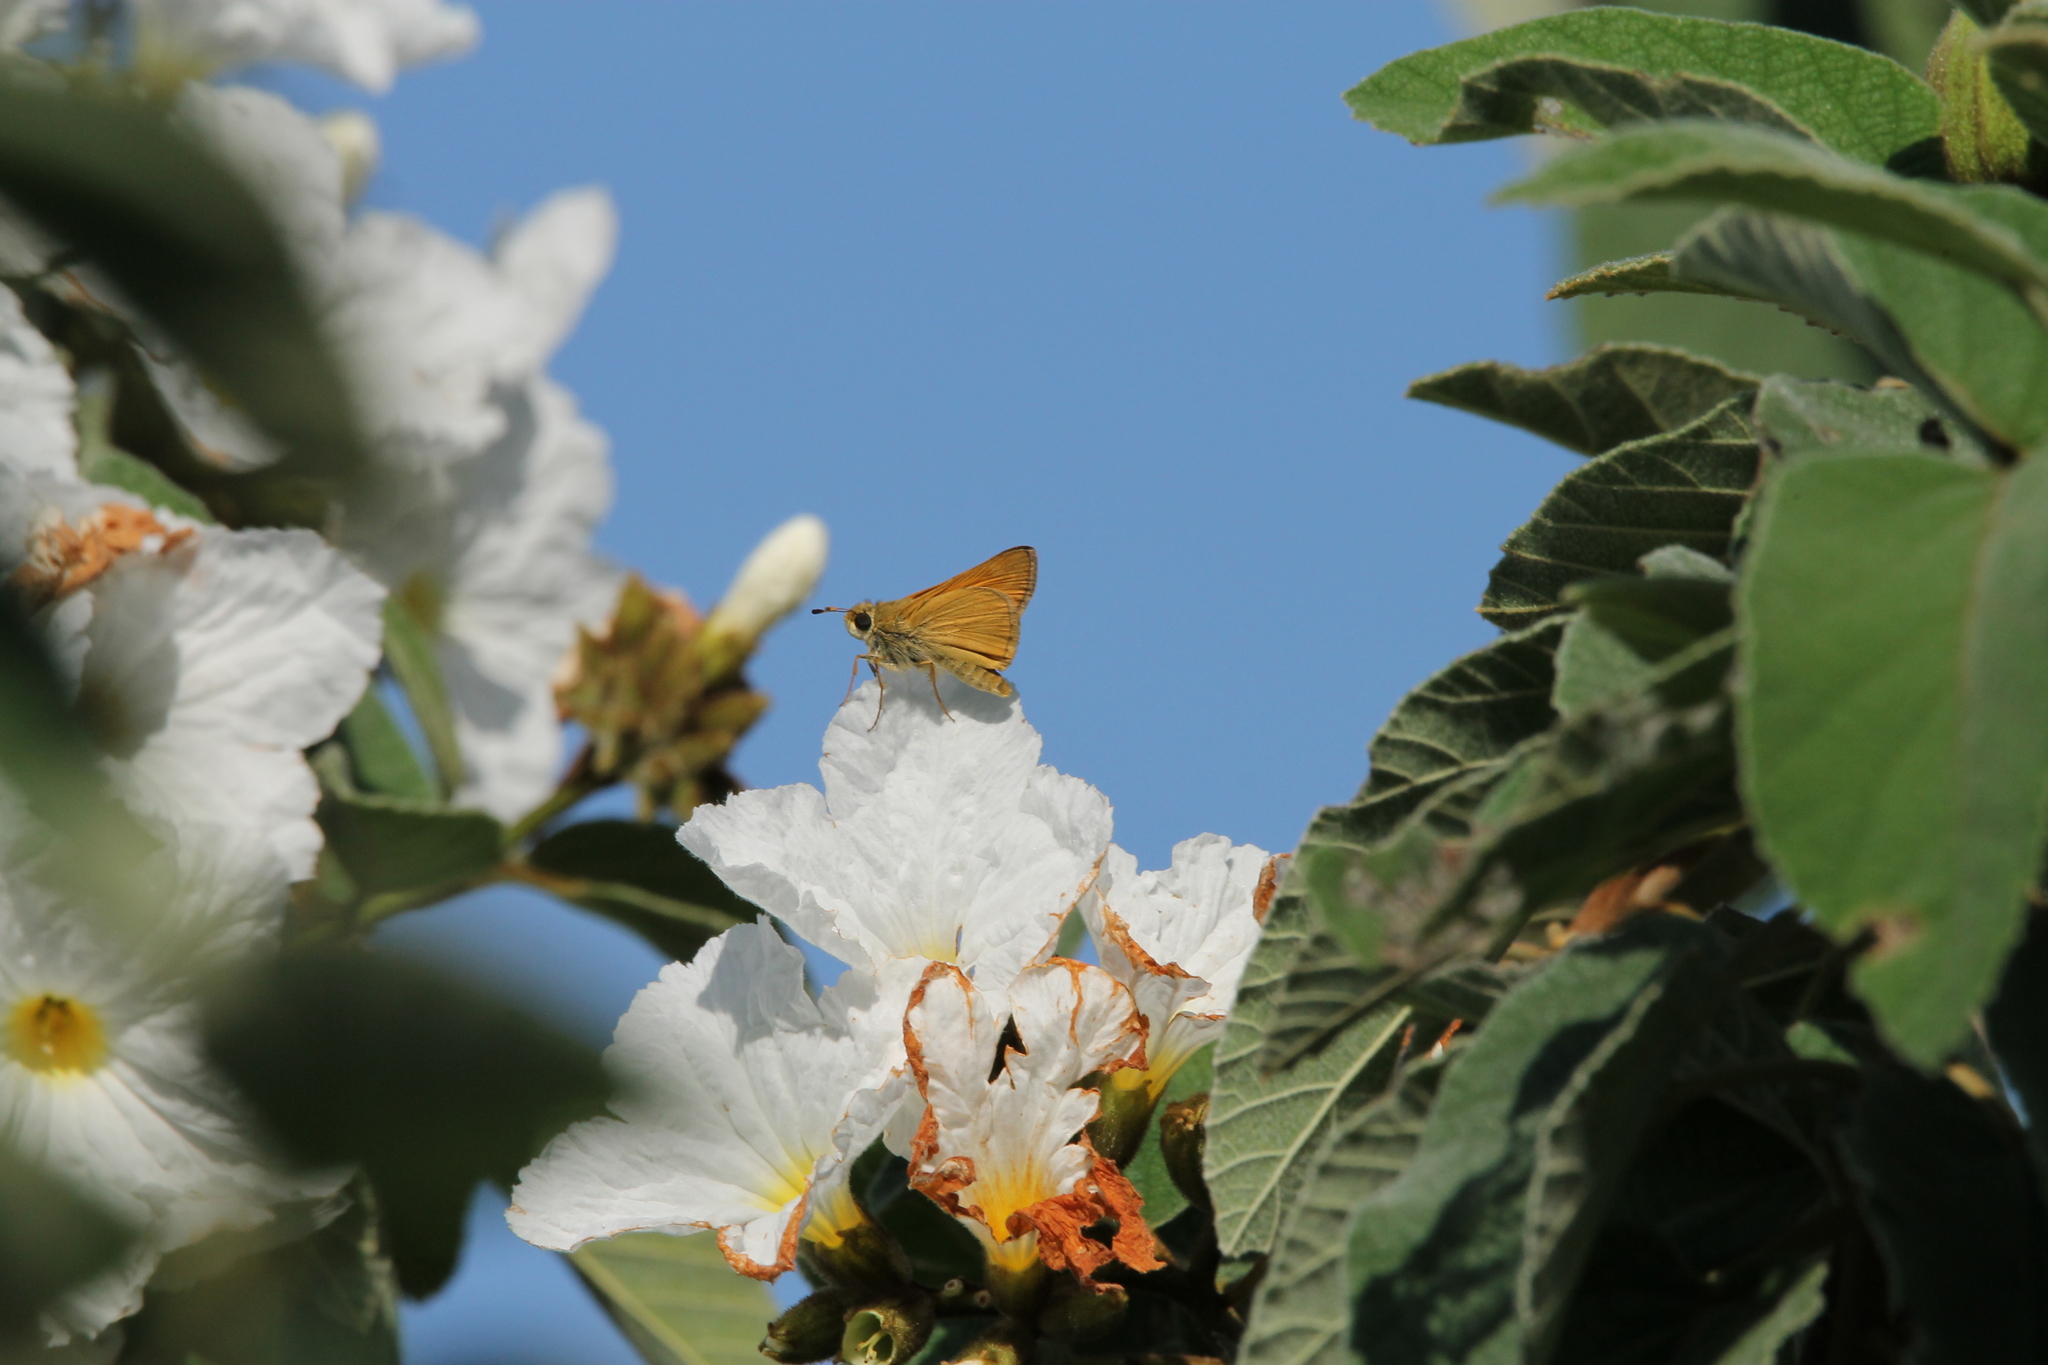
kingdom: Animalia
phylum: Arthropoda
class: Insecta
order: Lepidoptera
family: Hesperiidae
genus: Atalopedes
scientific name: Atalopedes
